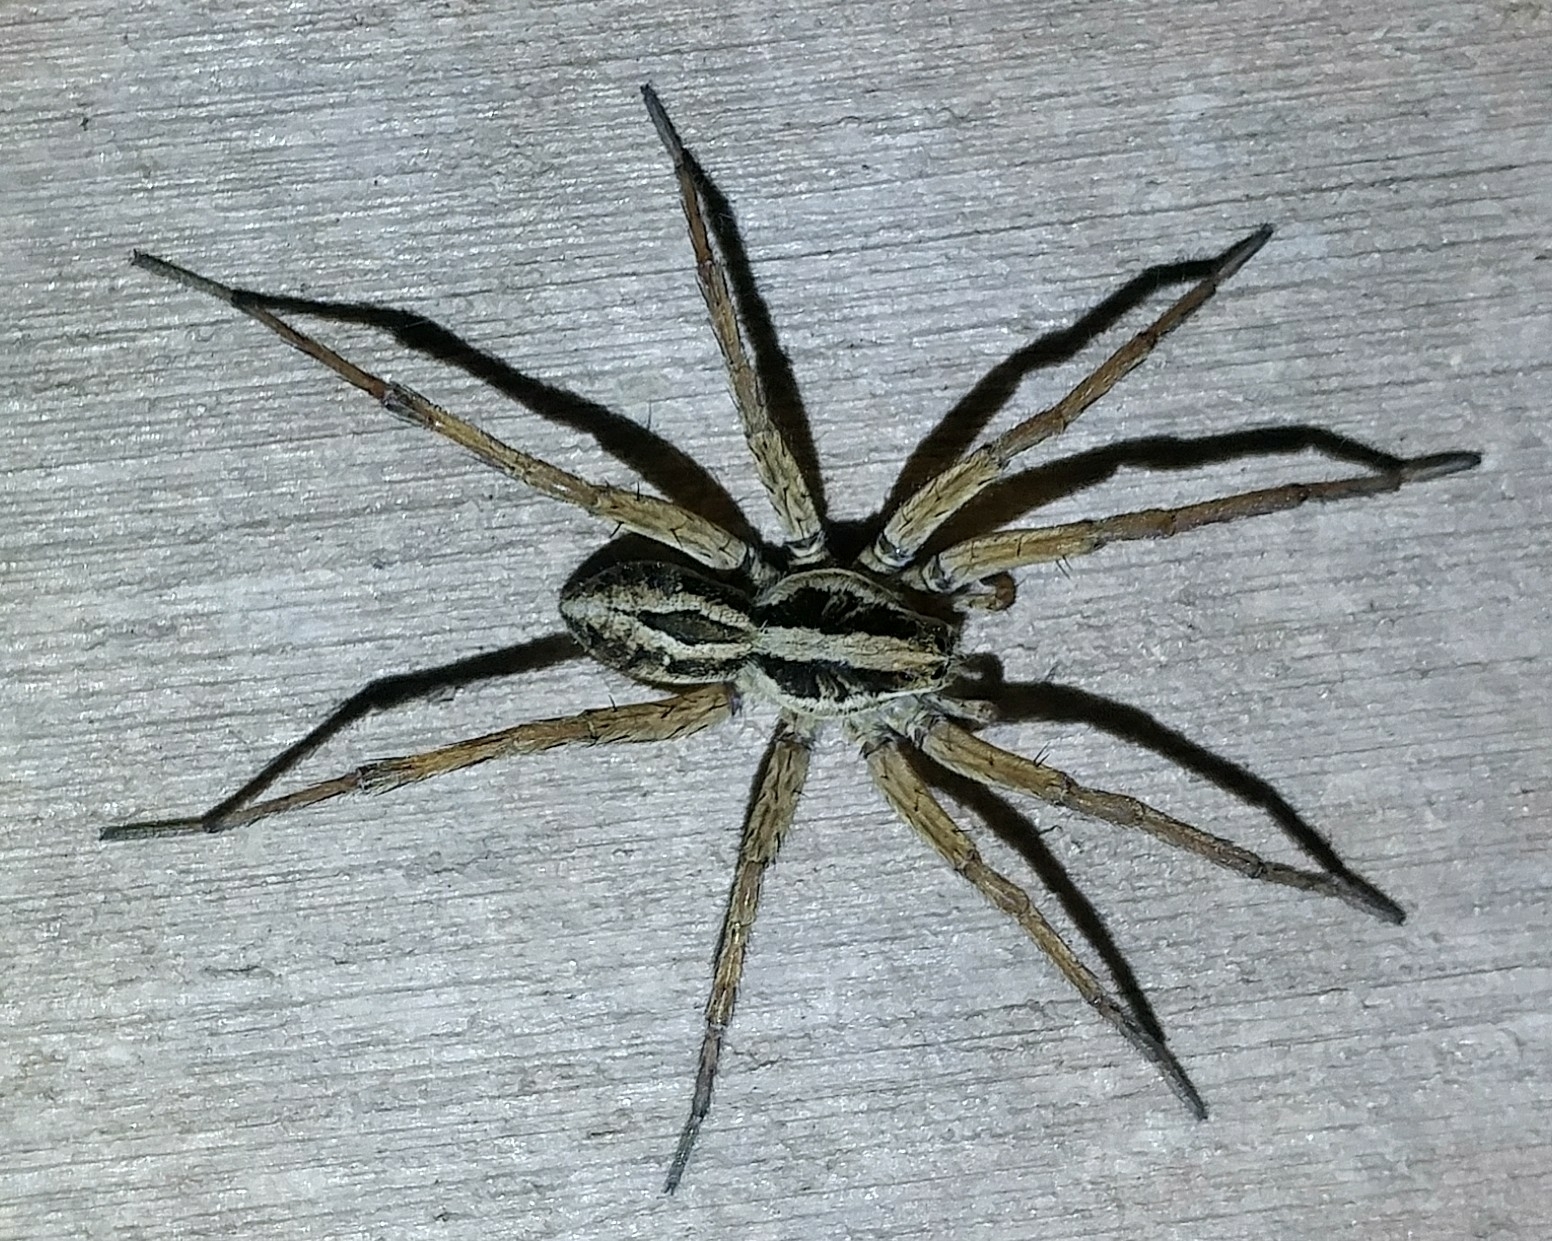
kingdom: Animalia
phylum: Arthropoda
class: Arachnida
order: Araneae
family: Lycosidae
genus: Schizocosa
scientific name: Schizocosa mccooki
